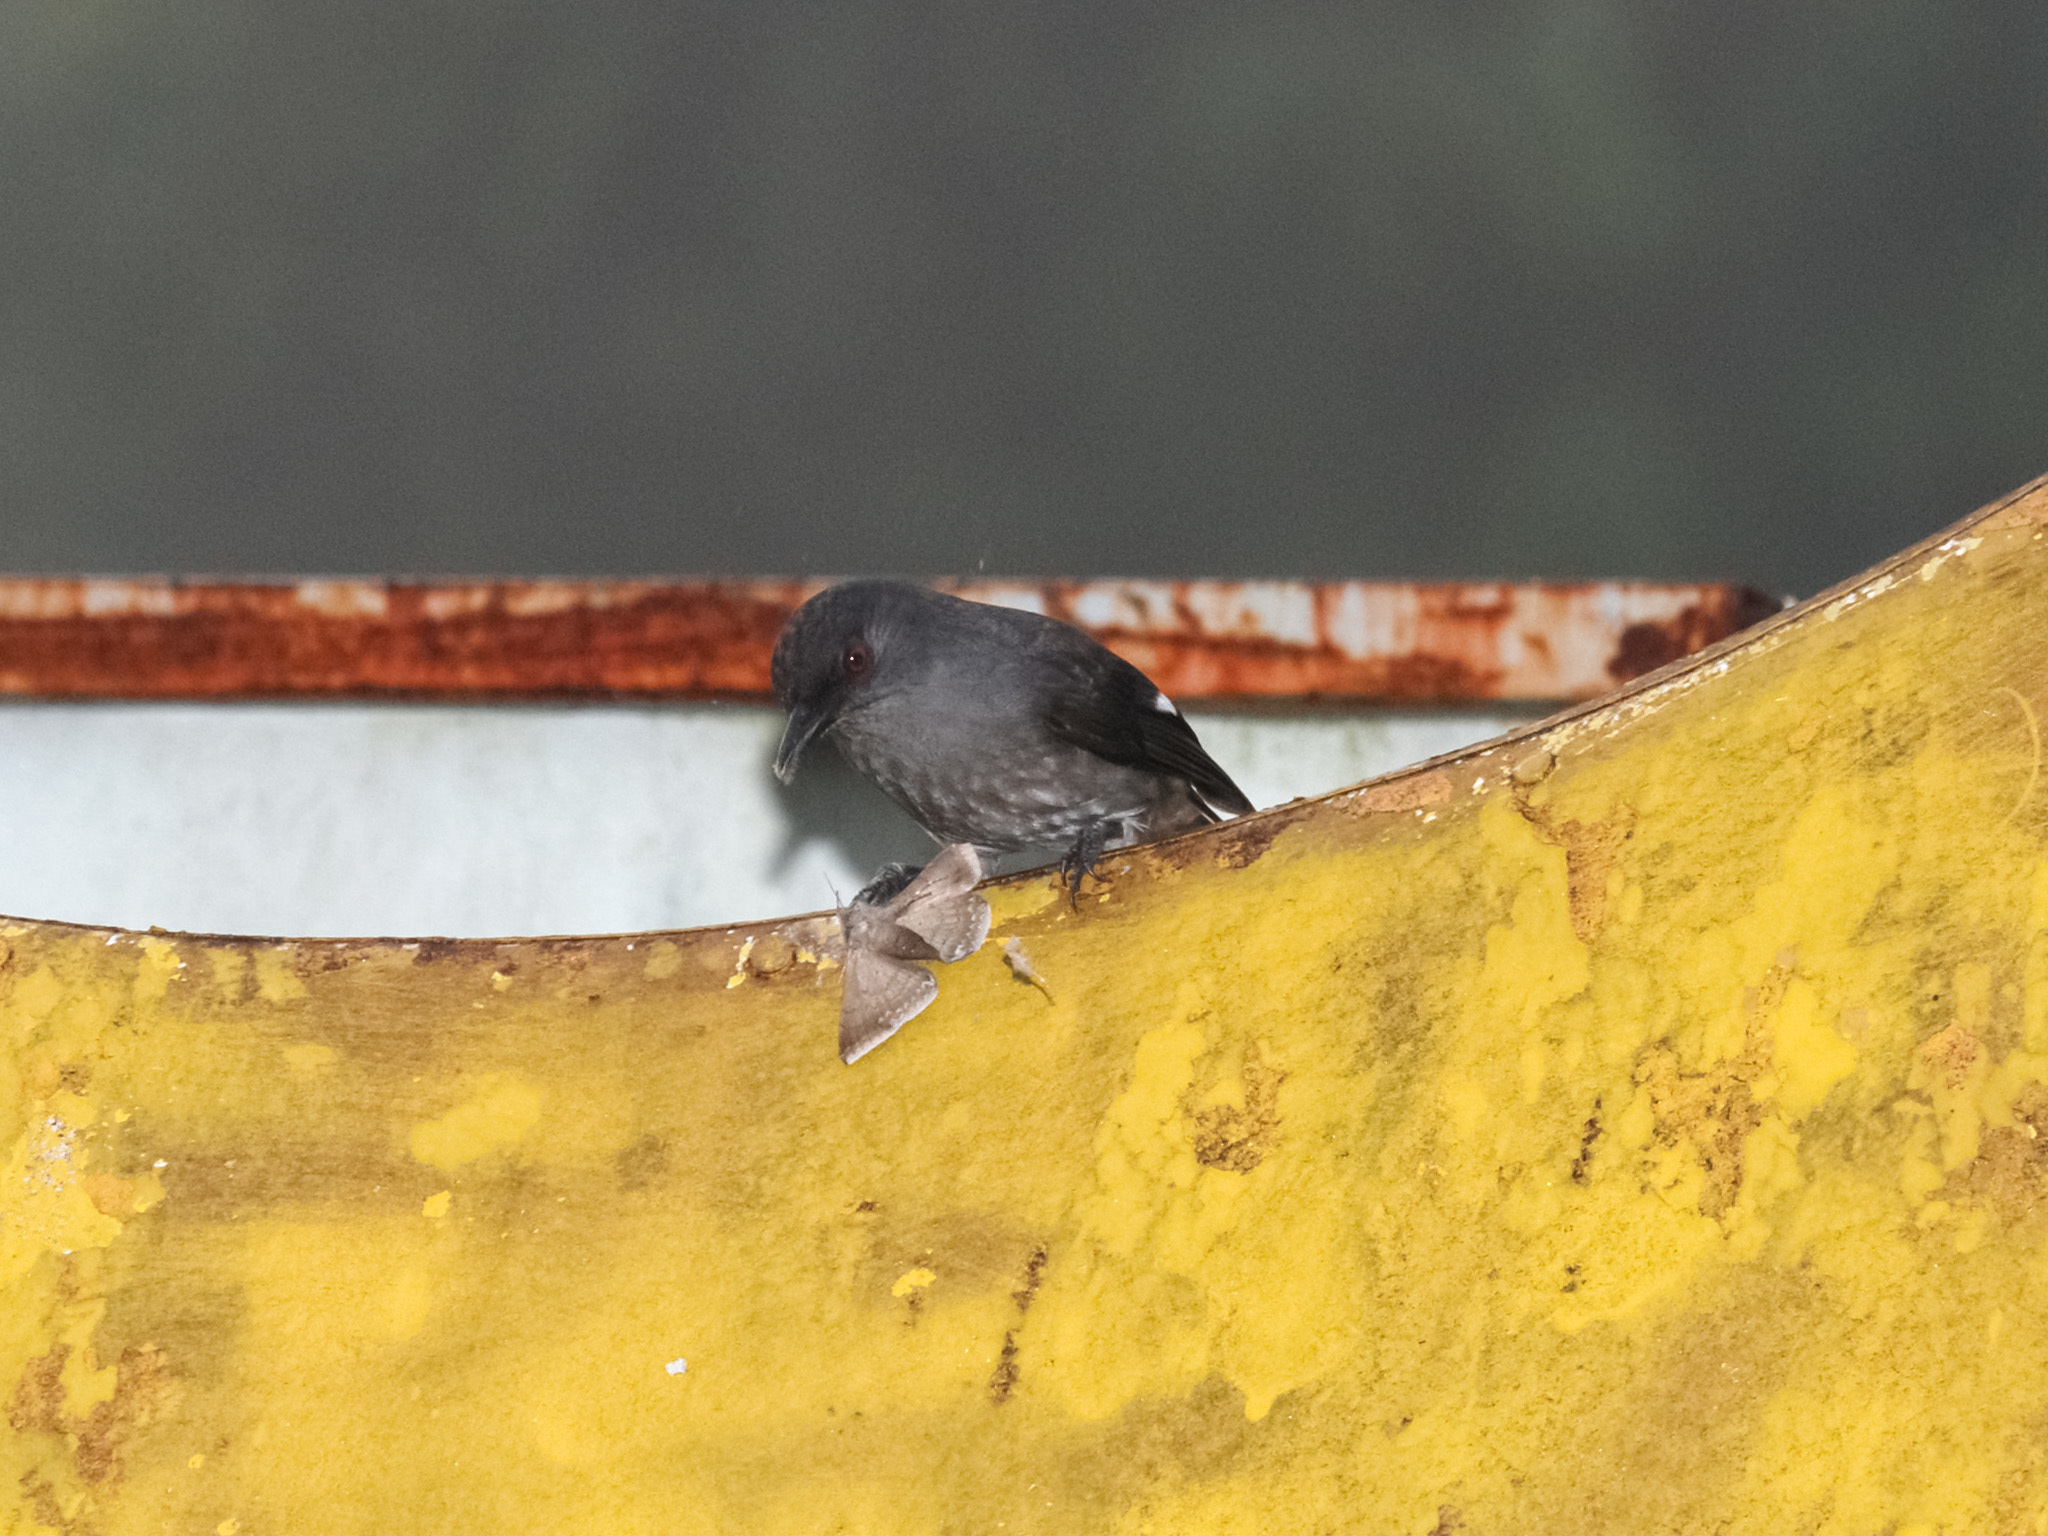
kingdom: Animalia
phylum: Chordata
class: Aves
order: Passeriformes
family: Leiothrichidae
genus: Heterophasia
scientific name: Heterophasia picaoides
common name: Long-tailed sibia
